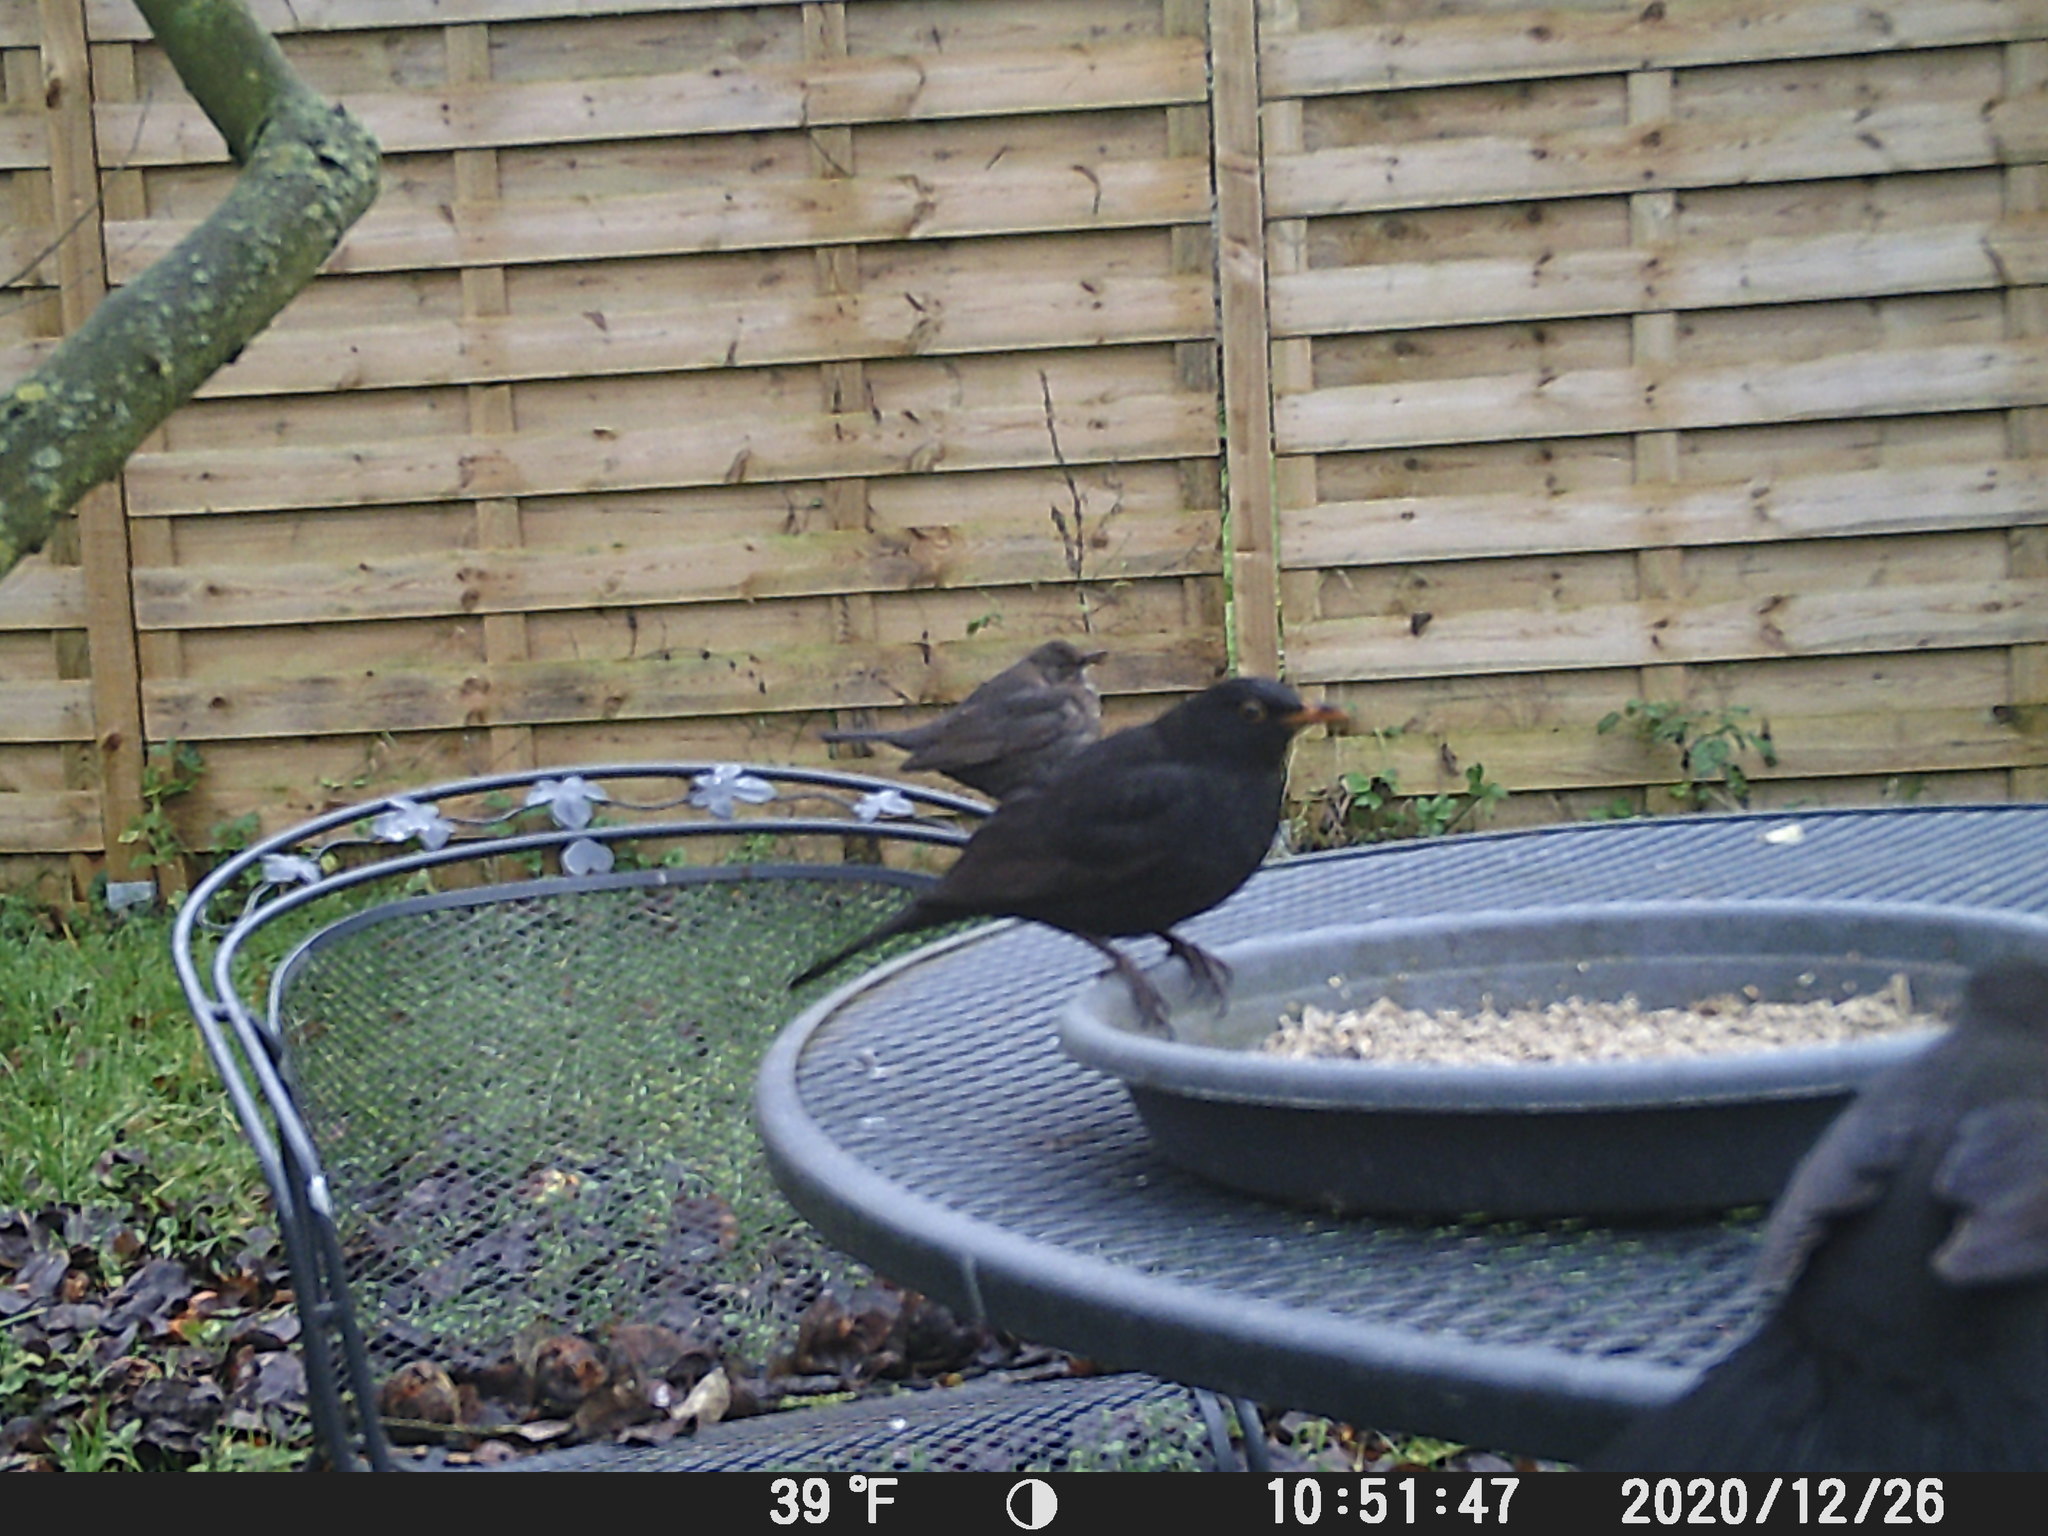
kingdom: Animalia
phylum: Chordata
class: Aves
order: Passeriformes
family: Turdidae
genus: Turdus
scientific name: Turdus merula
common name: Common blackbird
